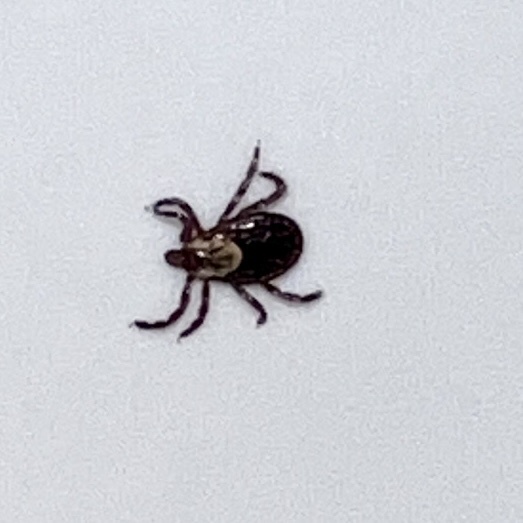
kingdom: Animalia
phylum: Arthropoda
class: Arachnida
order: Ixodida
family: Ixodidae
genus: Dermacentor
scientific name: Dermacentor variabilis
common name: American dog tick
